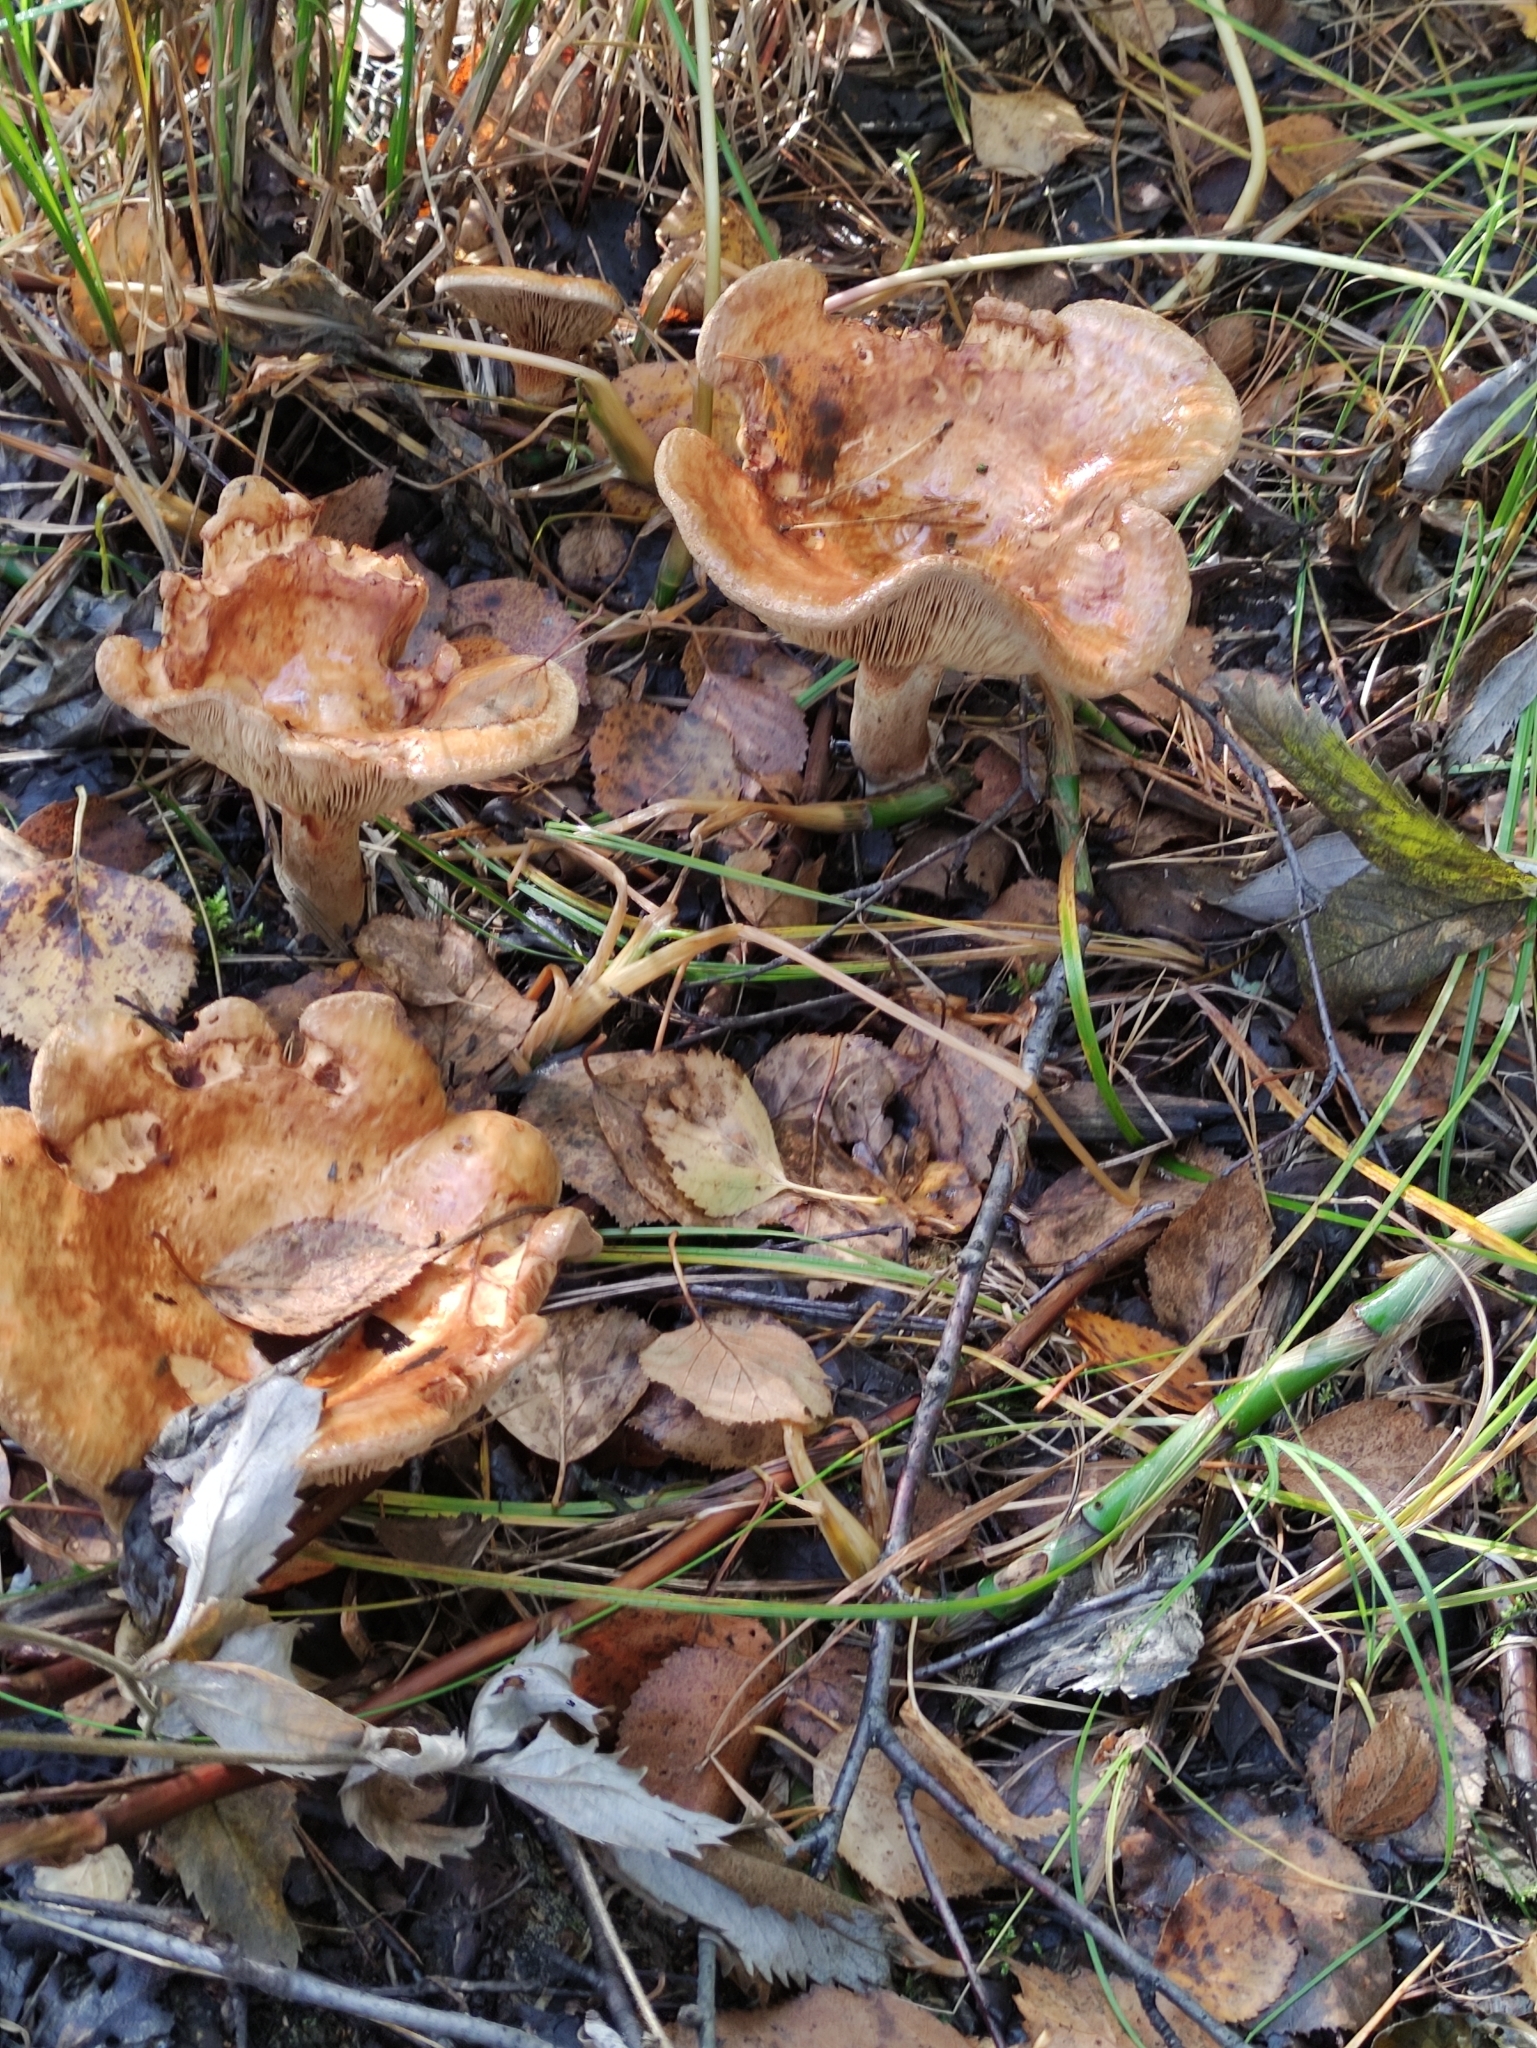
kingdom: Fungi
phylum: Basidiomycota
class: Agaricomycetes
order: Boletales
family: Paxillaceae
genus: Paxillus
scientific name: Paxillus involutus
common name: Brown roll rim
